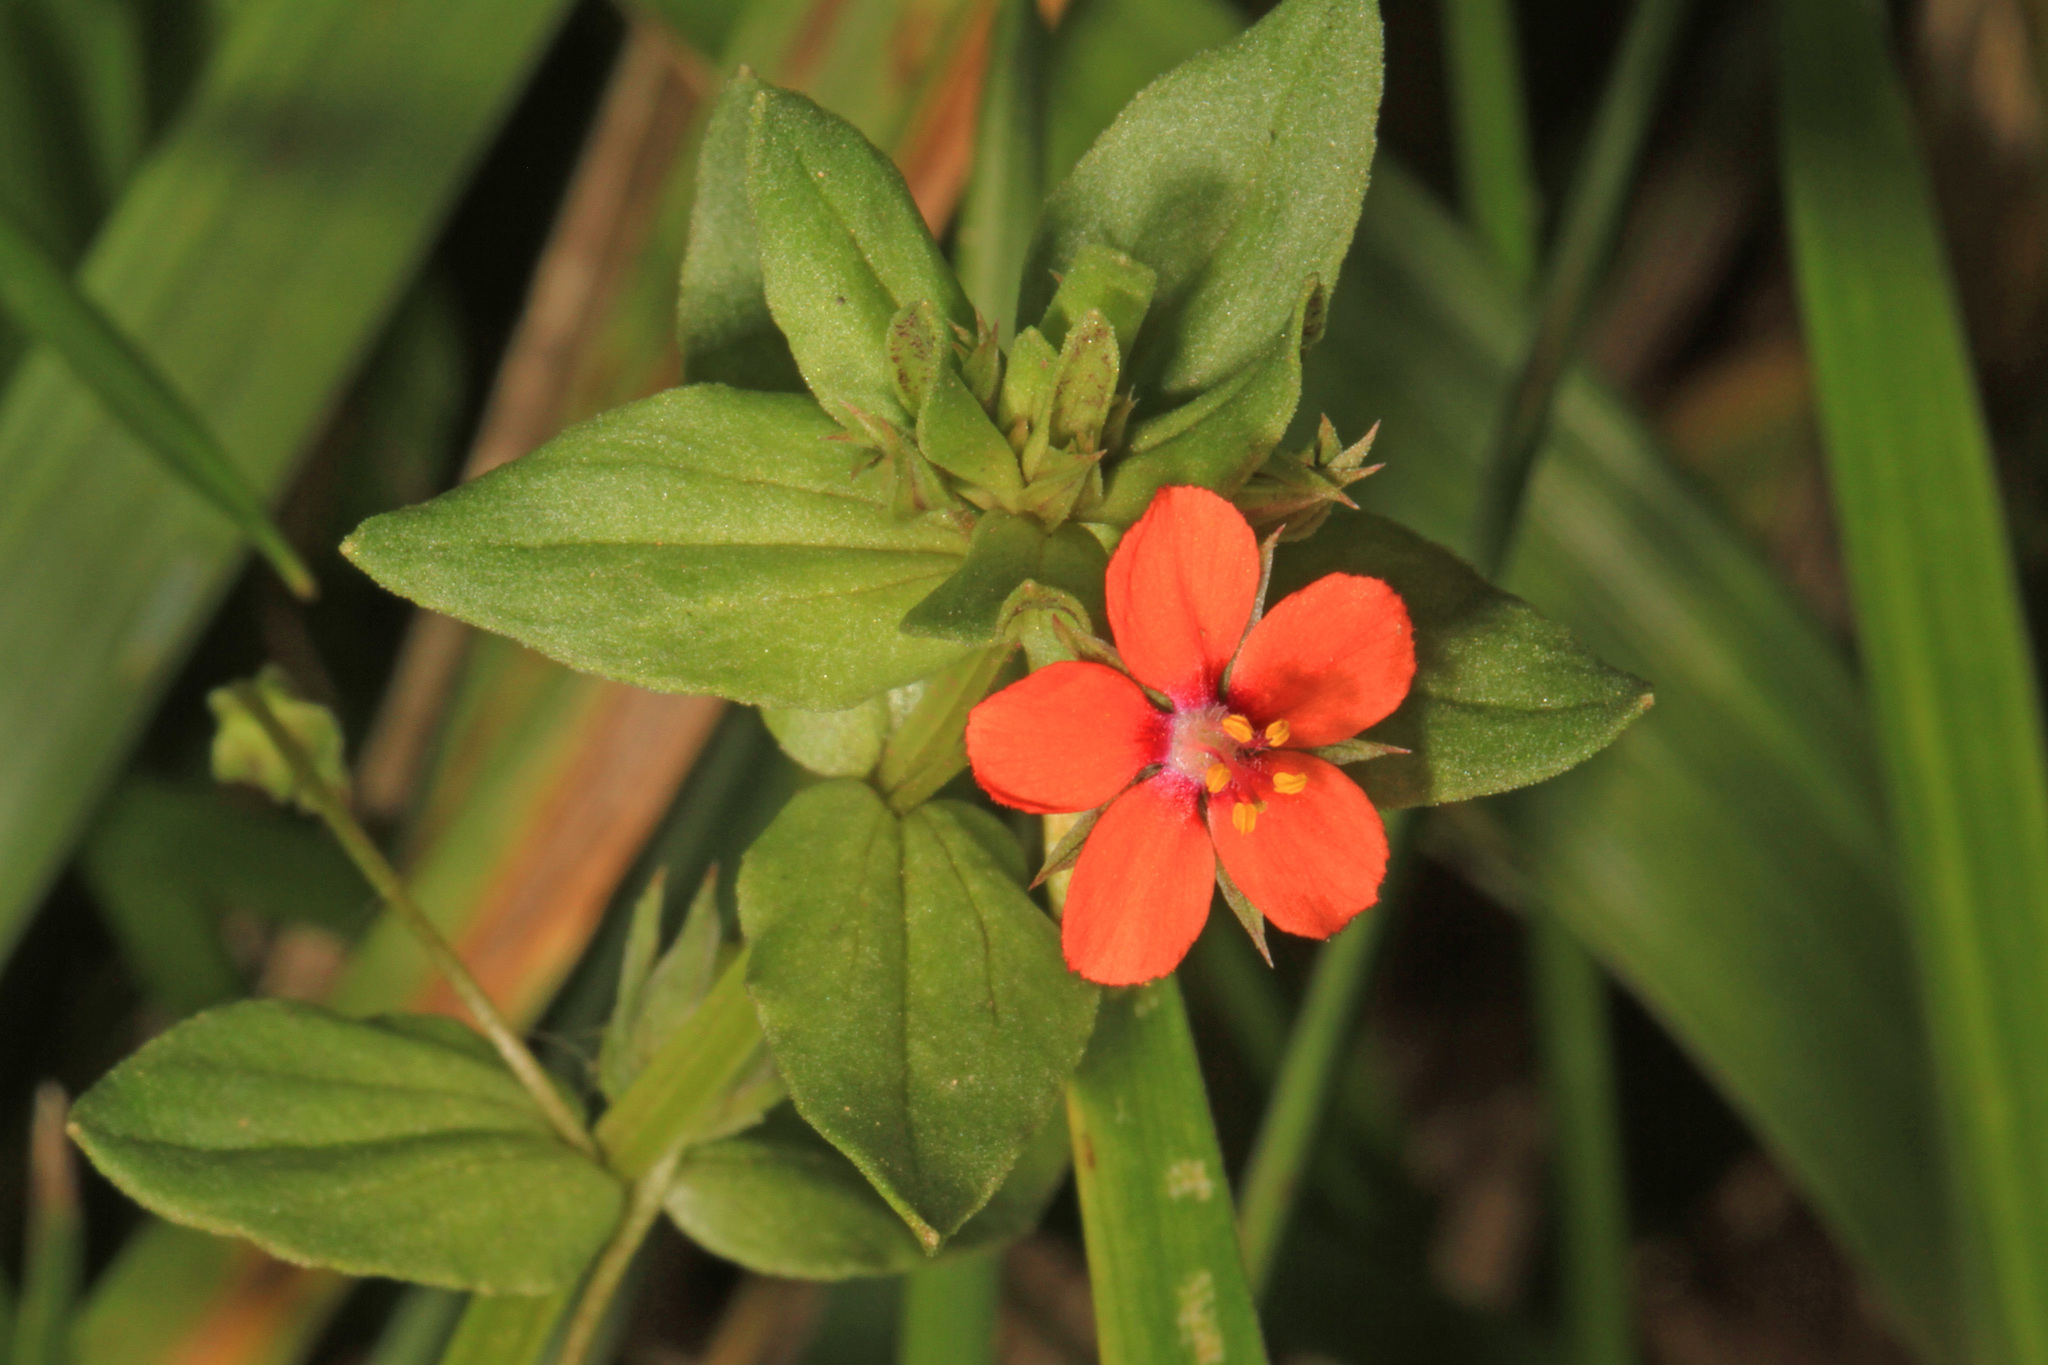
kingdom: Plantae
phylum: Tracheophyta
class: Magnoliopsida
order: Ericales
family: Primulaceae
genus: Lysimachia
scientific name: Lysimachia arvensis
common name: Scarlet pimpernel
